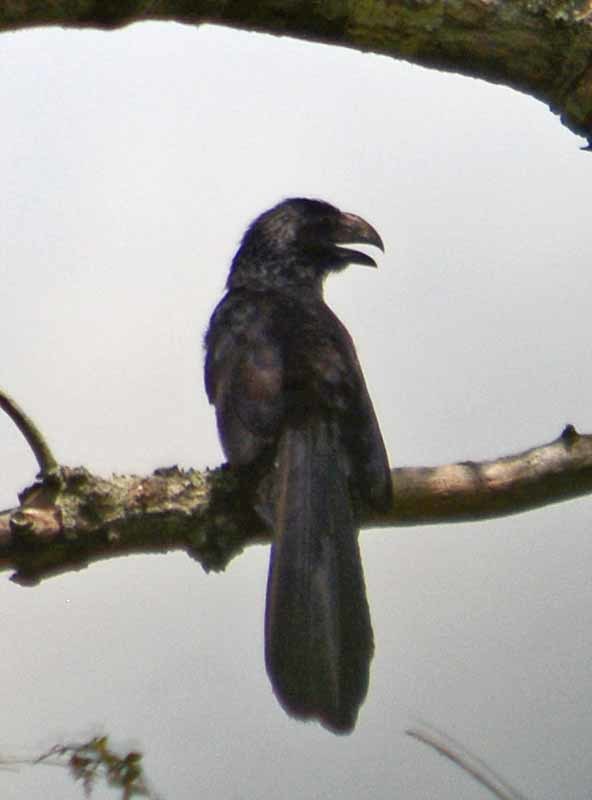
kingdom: Animalia
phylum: Chordata
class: Aves
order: Cuculiformes
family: Cuculidae
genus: Crotophaga
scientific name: Crotophaga sulcirostris
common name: Groove-billed ani
